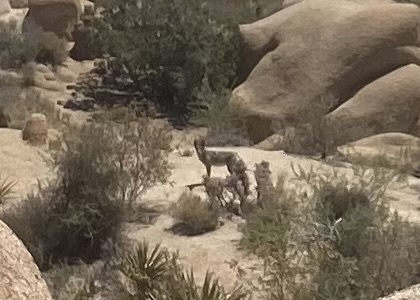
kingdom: Animalia
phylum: Chordata
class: Mammalia
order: Carnivora
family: Canidae
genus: Canis
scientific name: Canis latrans
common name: Coyote
